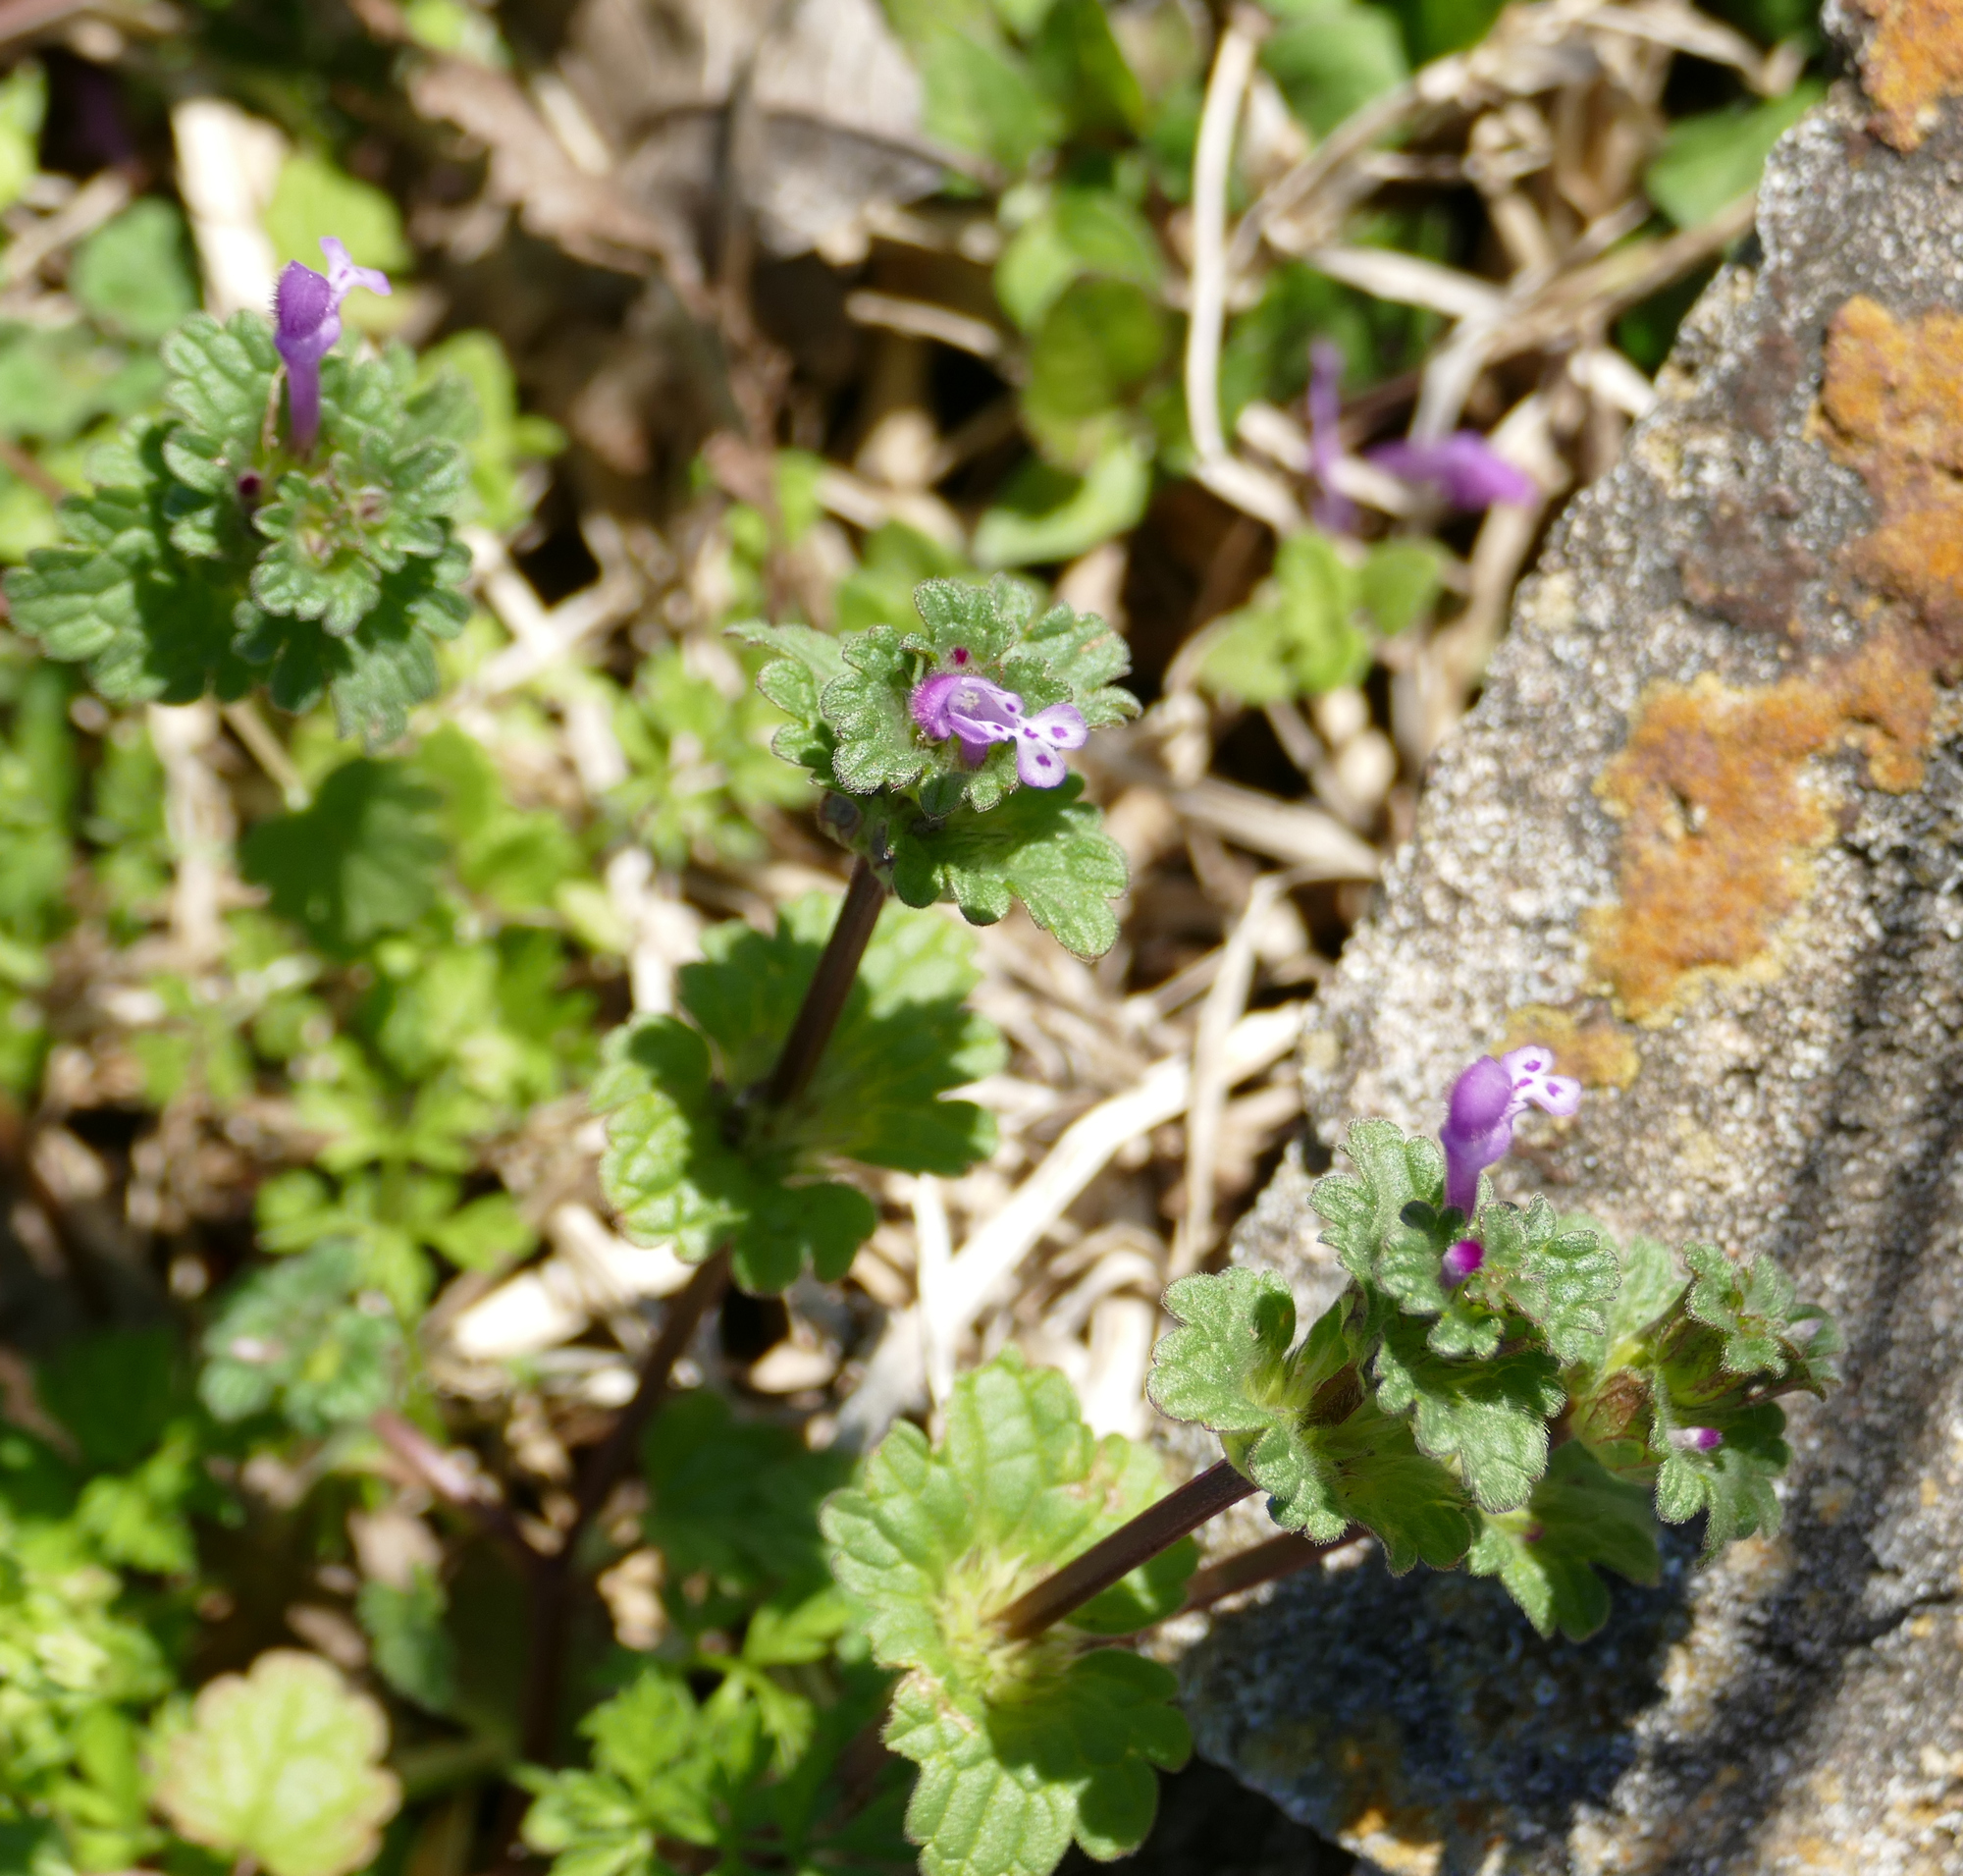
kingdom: Plantae
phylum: Tracheophyta
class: Magnoliopsida
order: Lamiales
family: Lamiaceae
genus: Lamium
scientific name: Lamium amplexicaule
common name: Henbit dead-nettle
